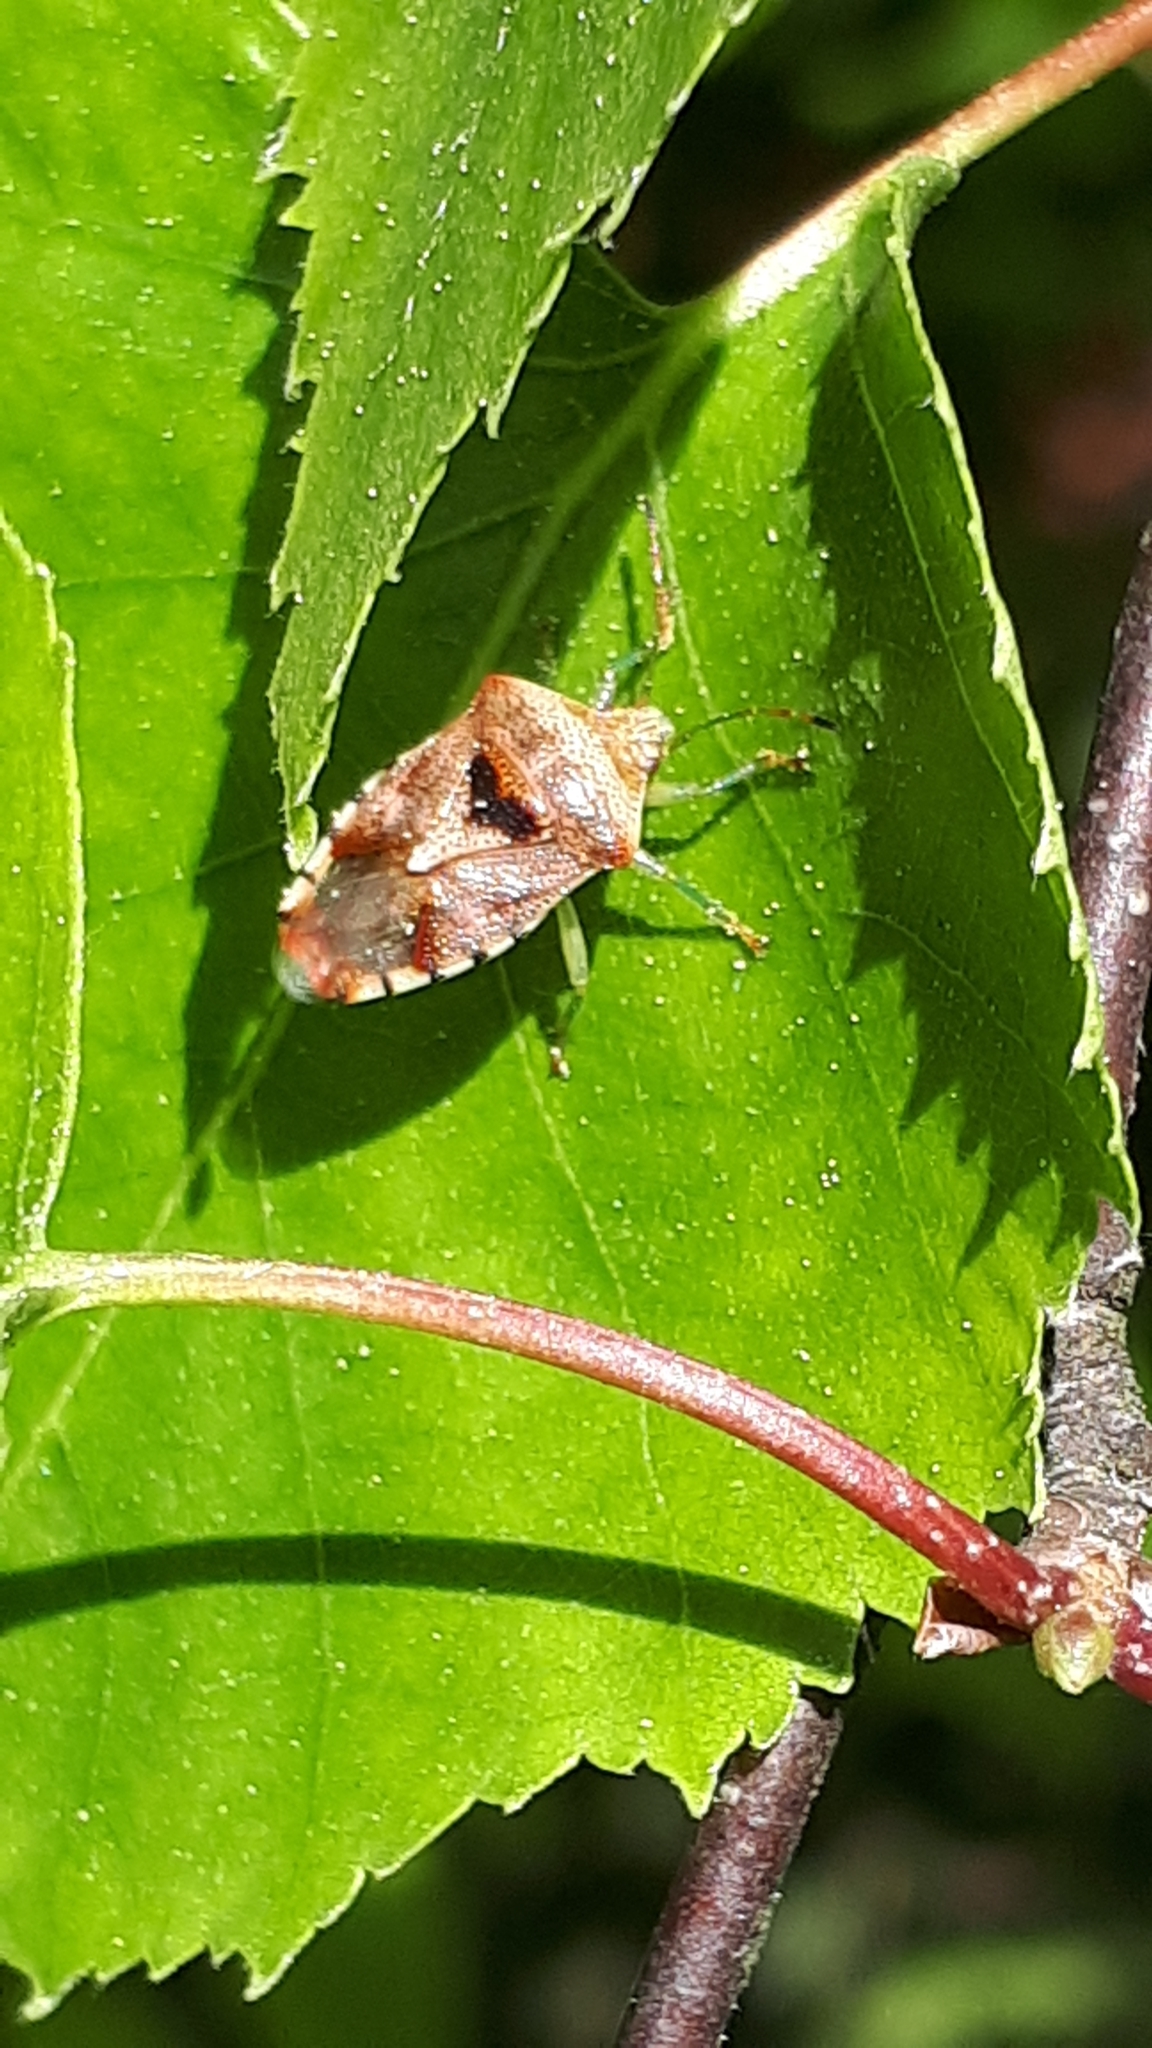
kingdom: Animalia
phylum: Arthropoda
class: Insecta
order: Hemiptera
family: Acanthosomatidae
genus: Elasmucha
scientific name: Elasmucha grisea
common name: Parent bug
